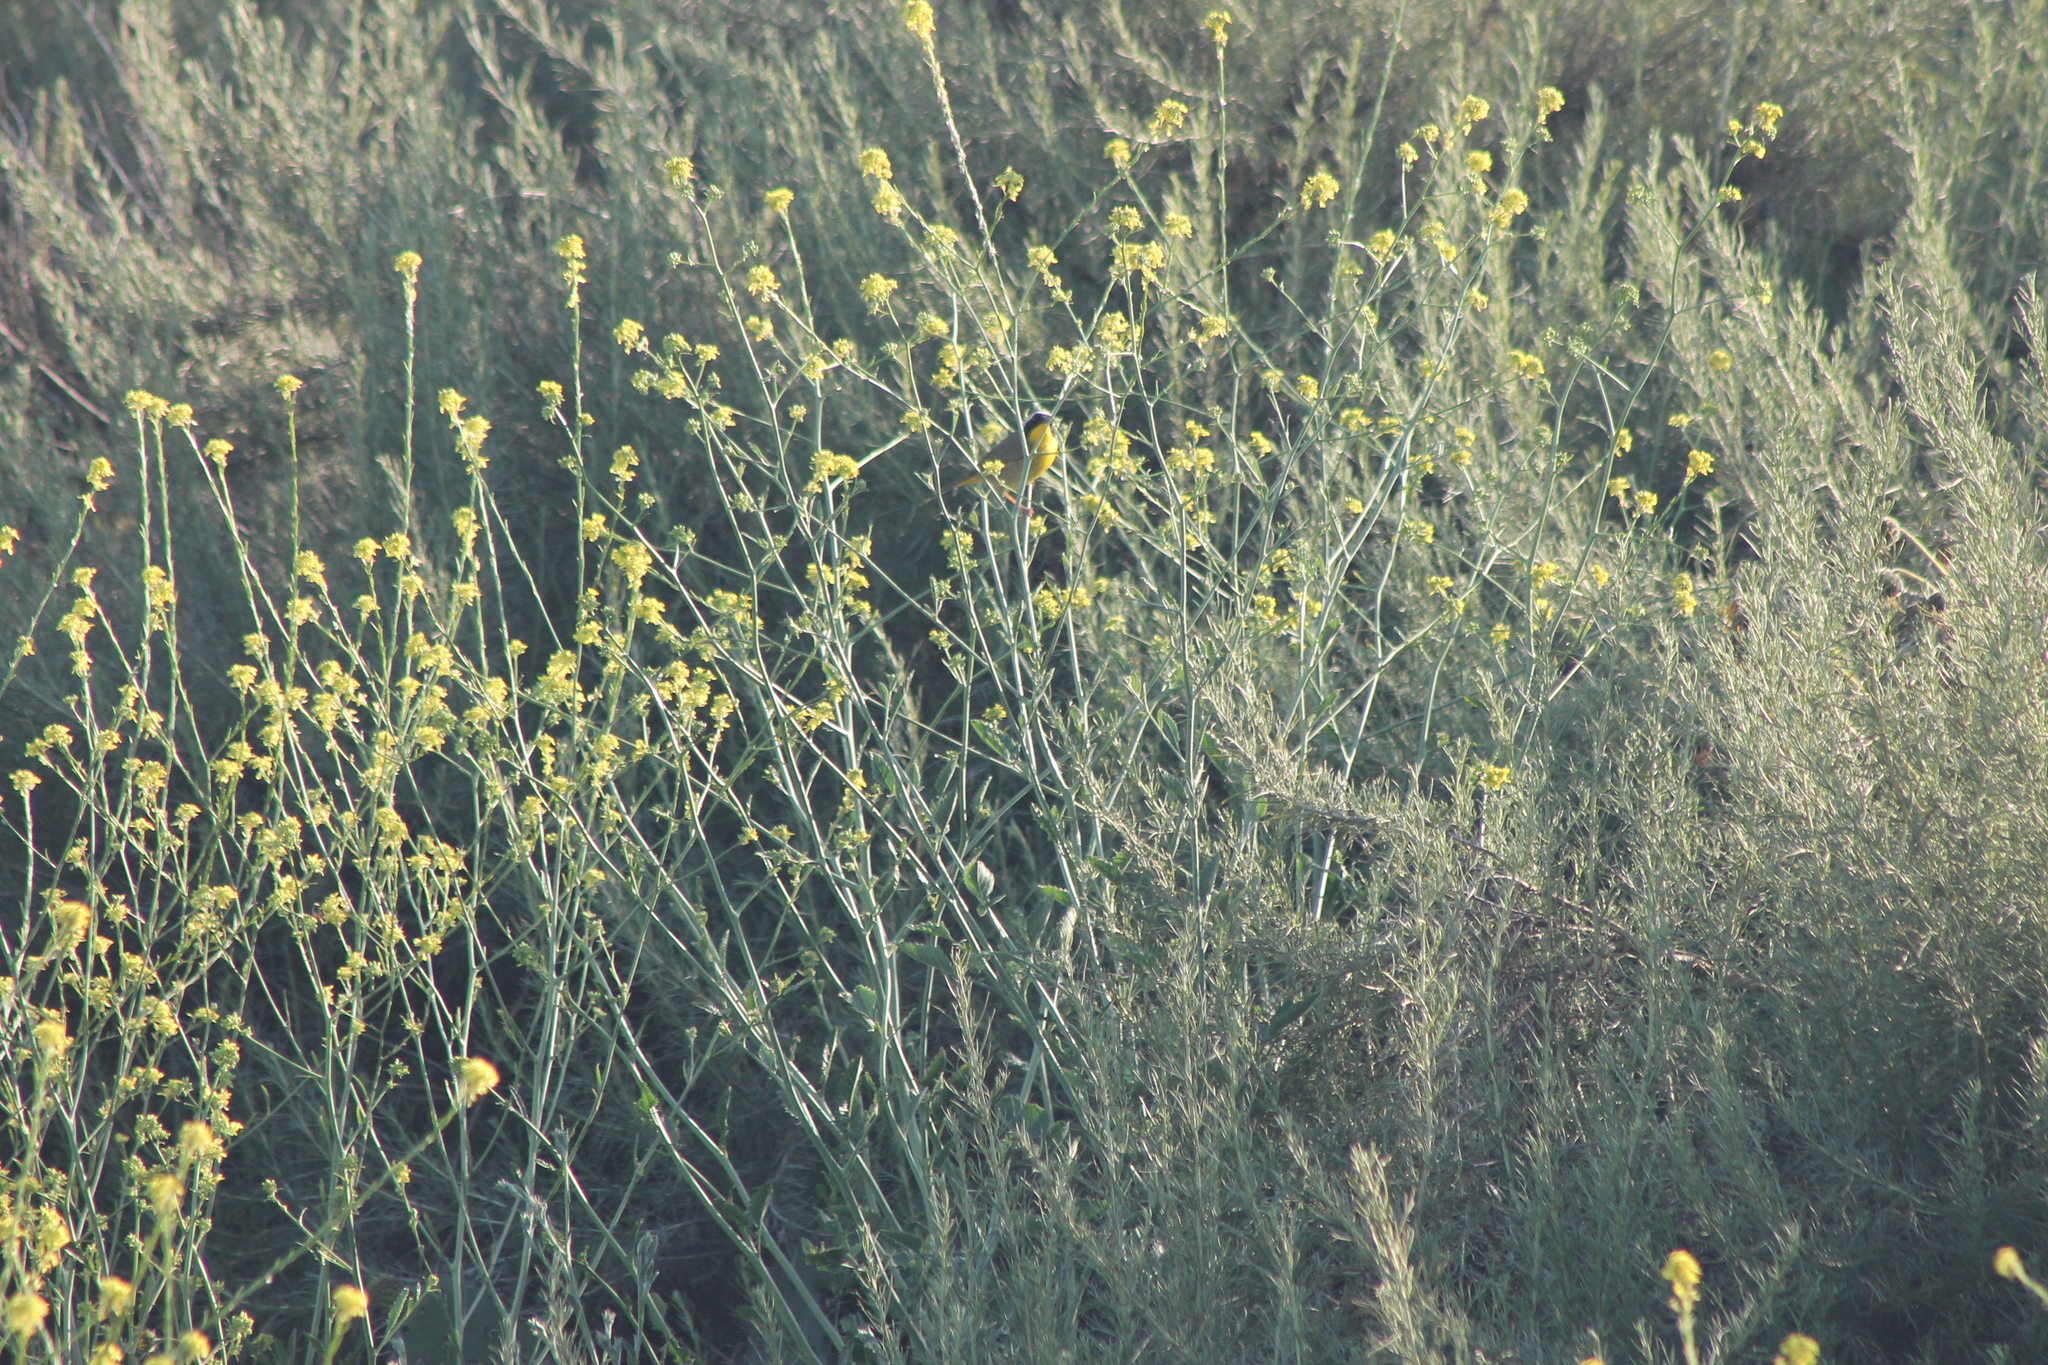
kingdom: Animalia
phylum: Chordata
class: Aves
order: Passeriformes
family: Parulidae
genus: Geothlypis
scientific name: Geothlypis trichas
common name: Common yellowthroat
